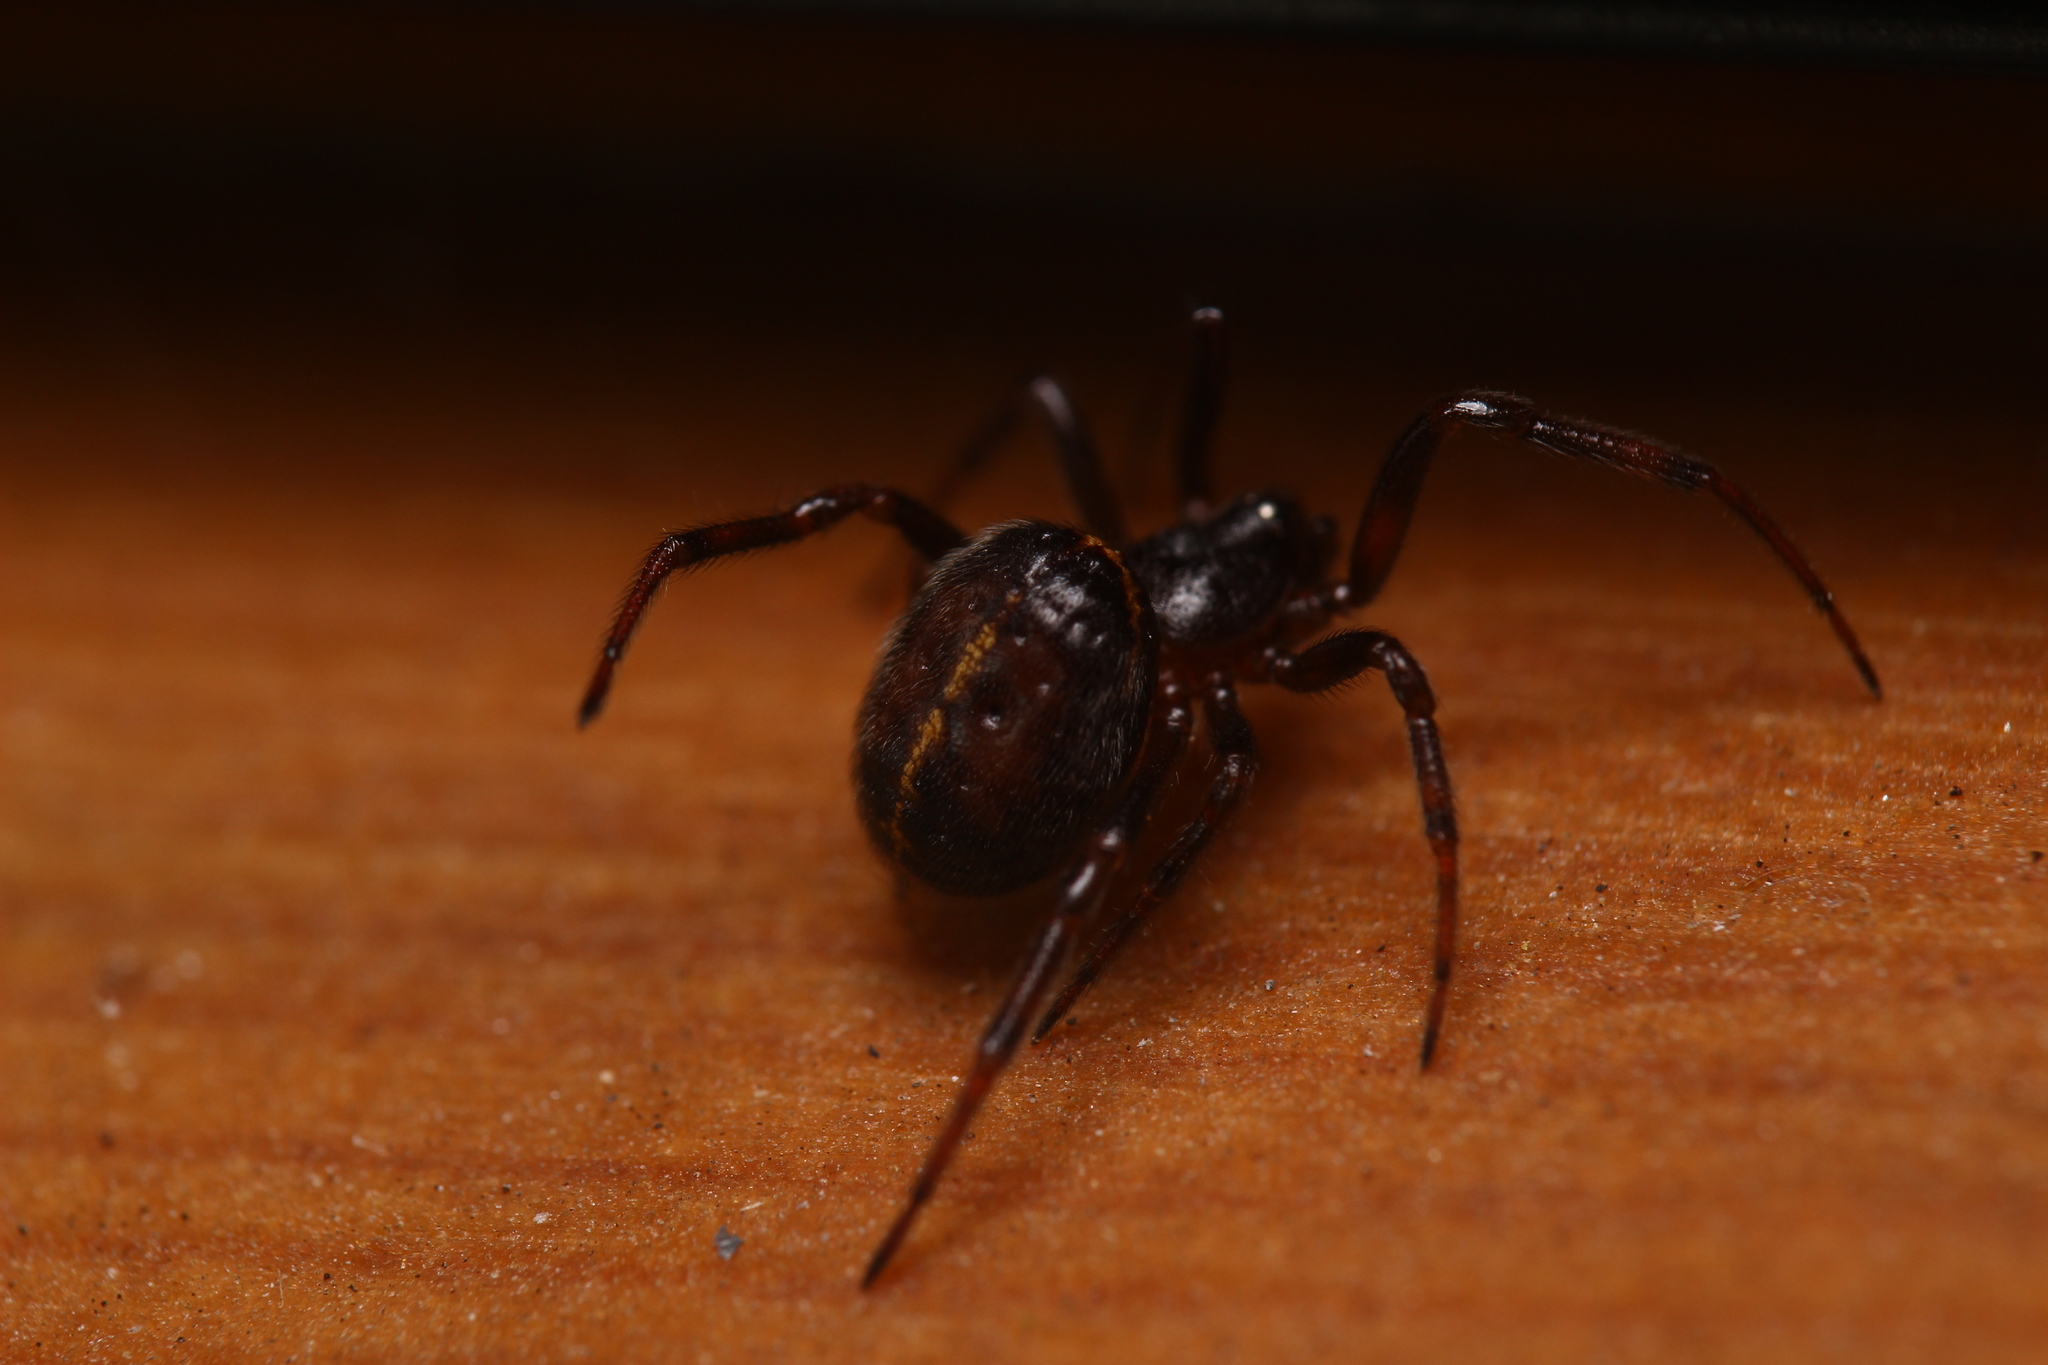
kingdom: Animalia
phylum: Arthropoda
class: Arachnida
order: Araneae
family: Theridiidae
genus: Steatoda
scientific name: Steatoda bipunctata
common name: False widow
